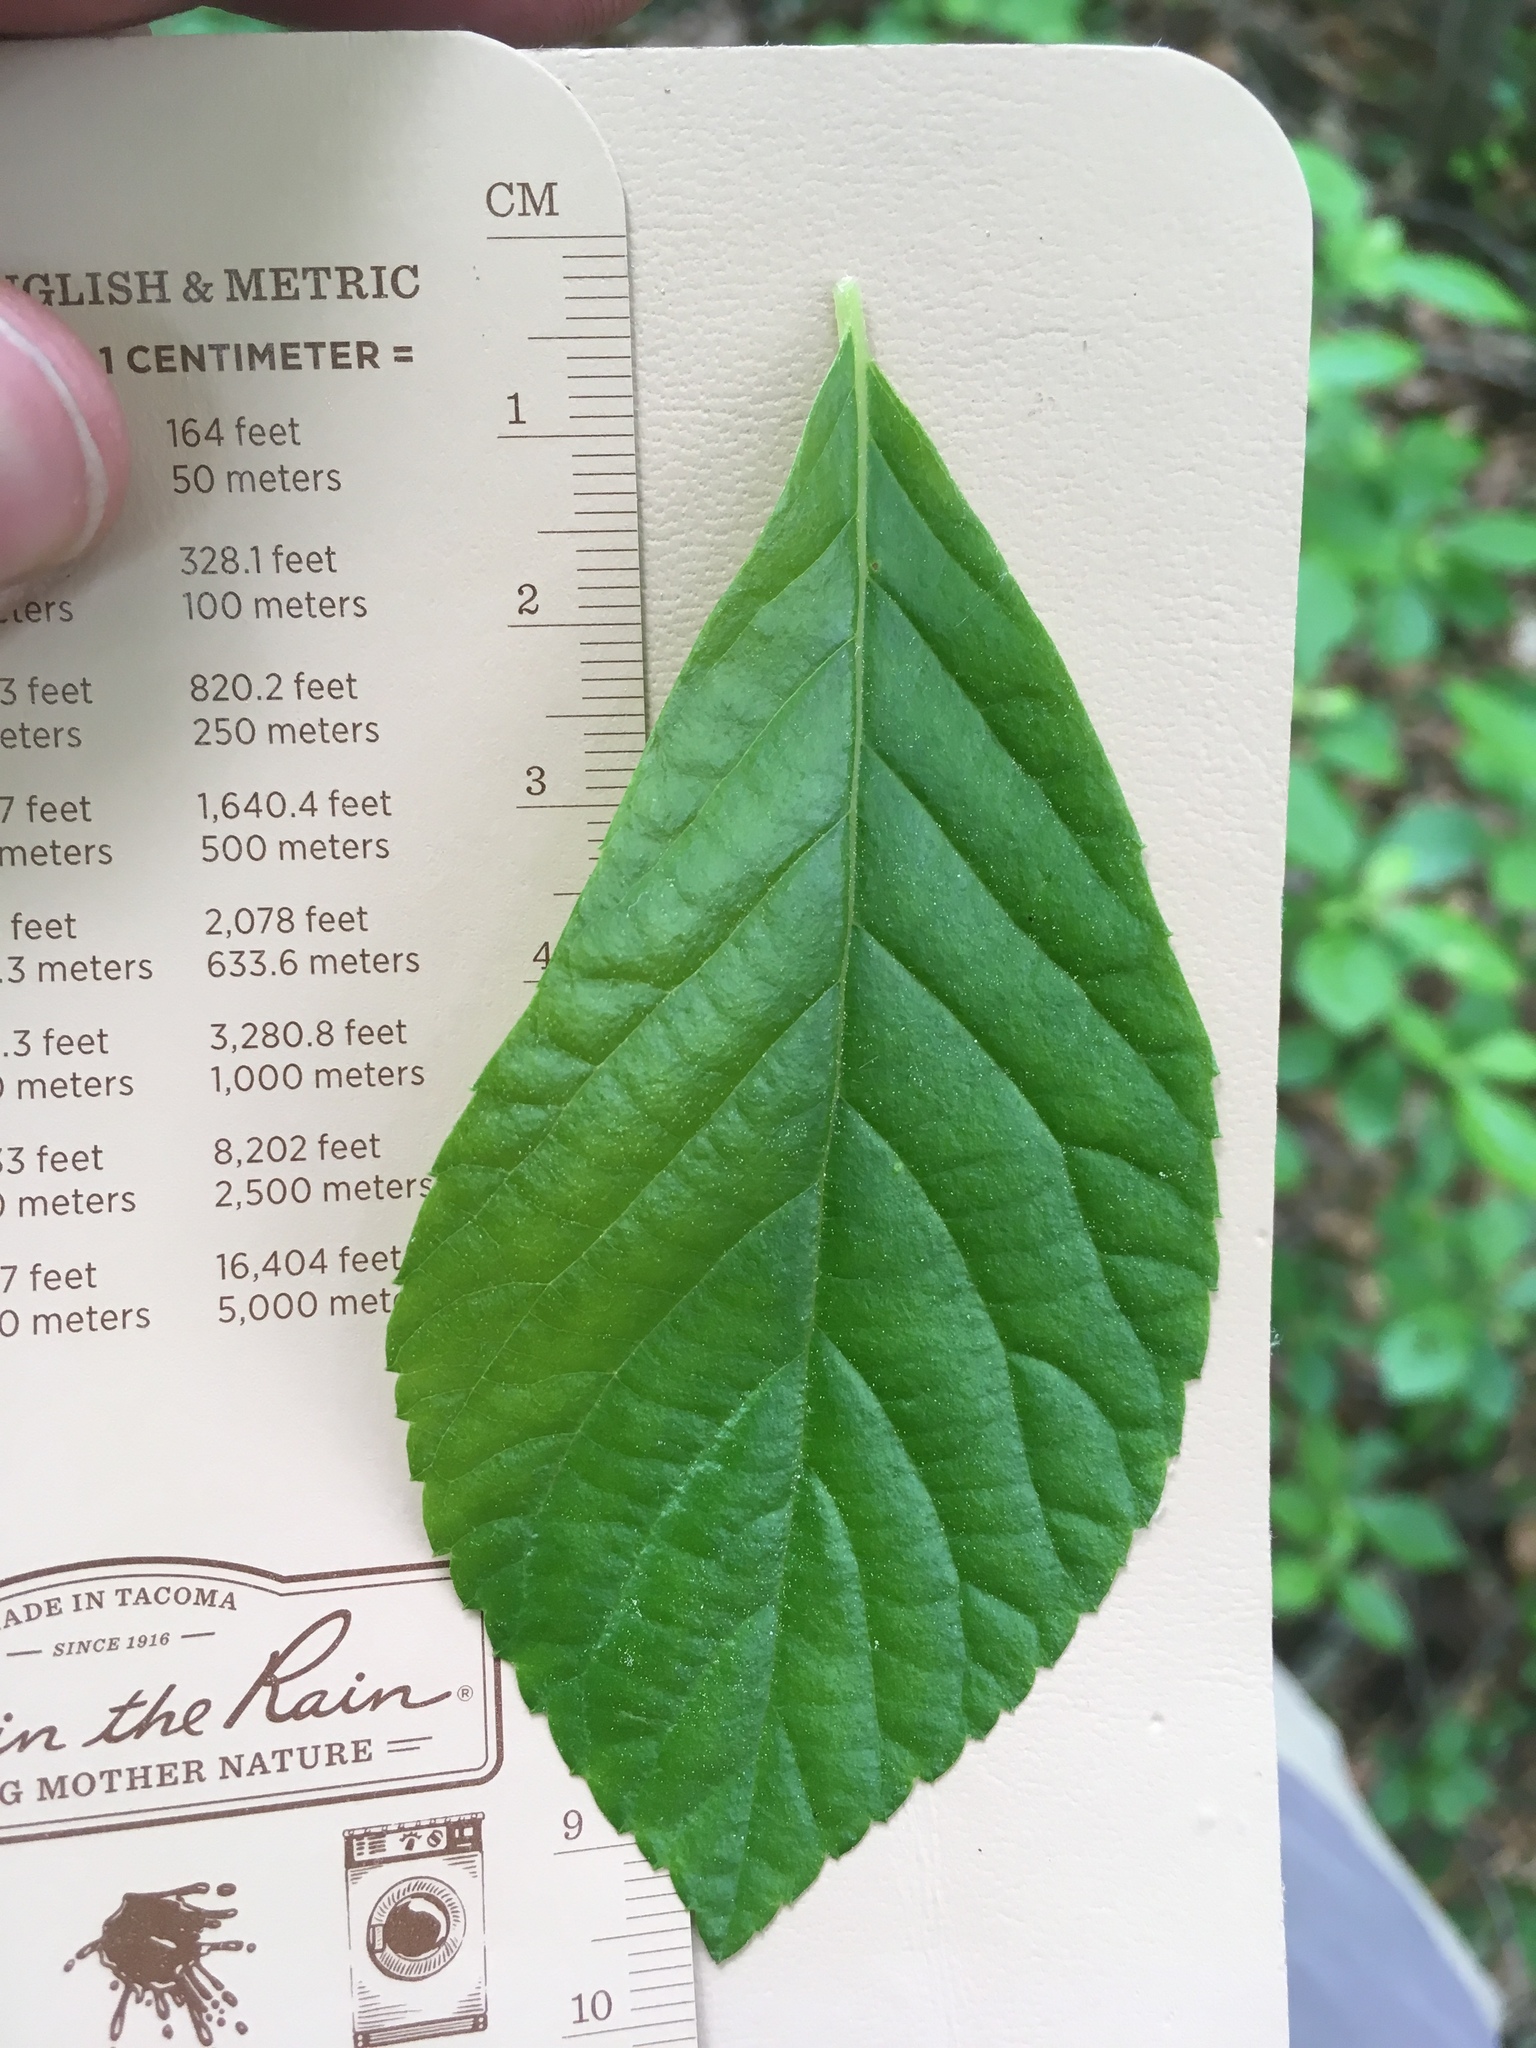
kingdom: Plantae
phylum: Tracheophyta
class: Magnoliopsida
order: Ericales
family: Clethraceae
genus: Clethra
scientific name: Clethra alnifolia
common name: Sweet pepperbush
